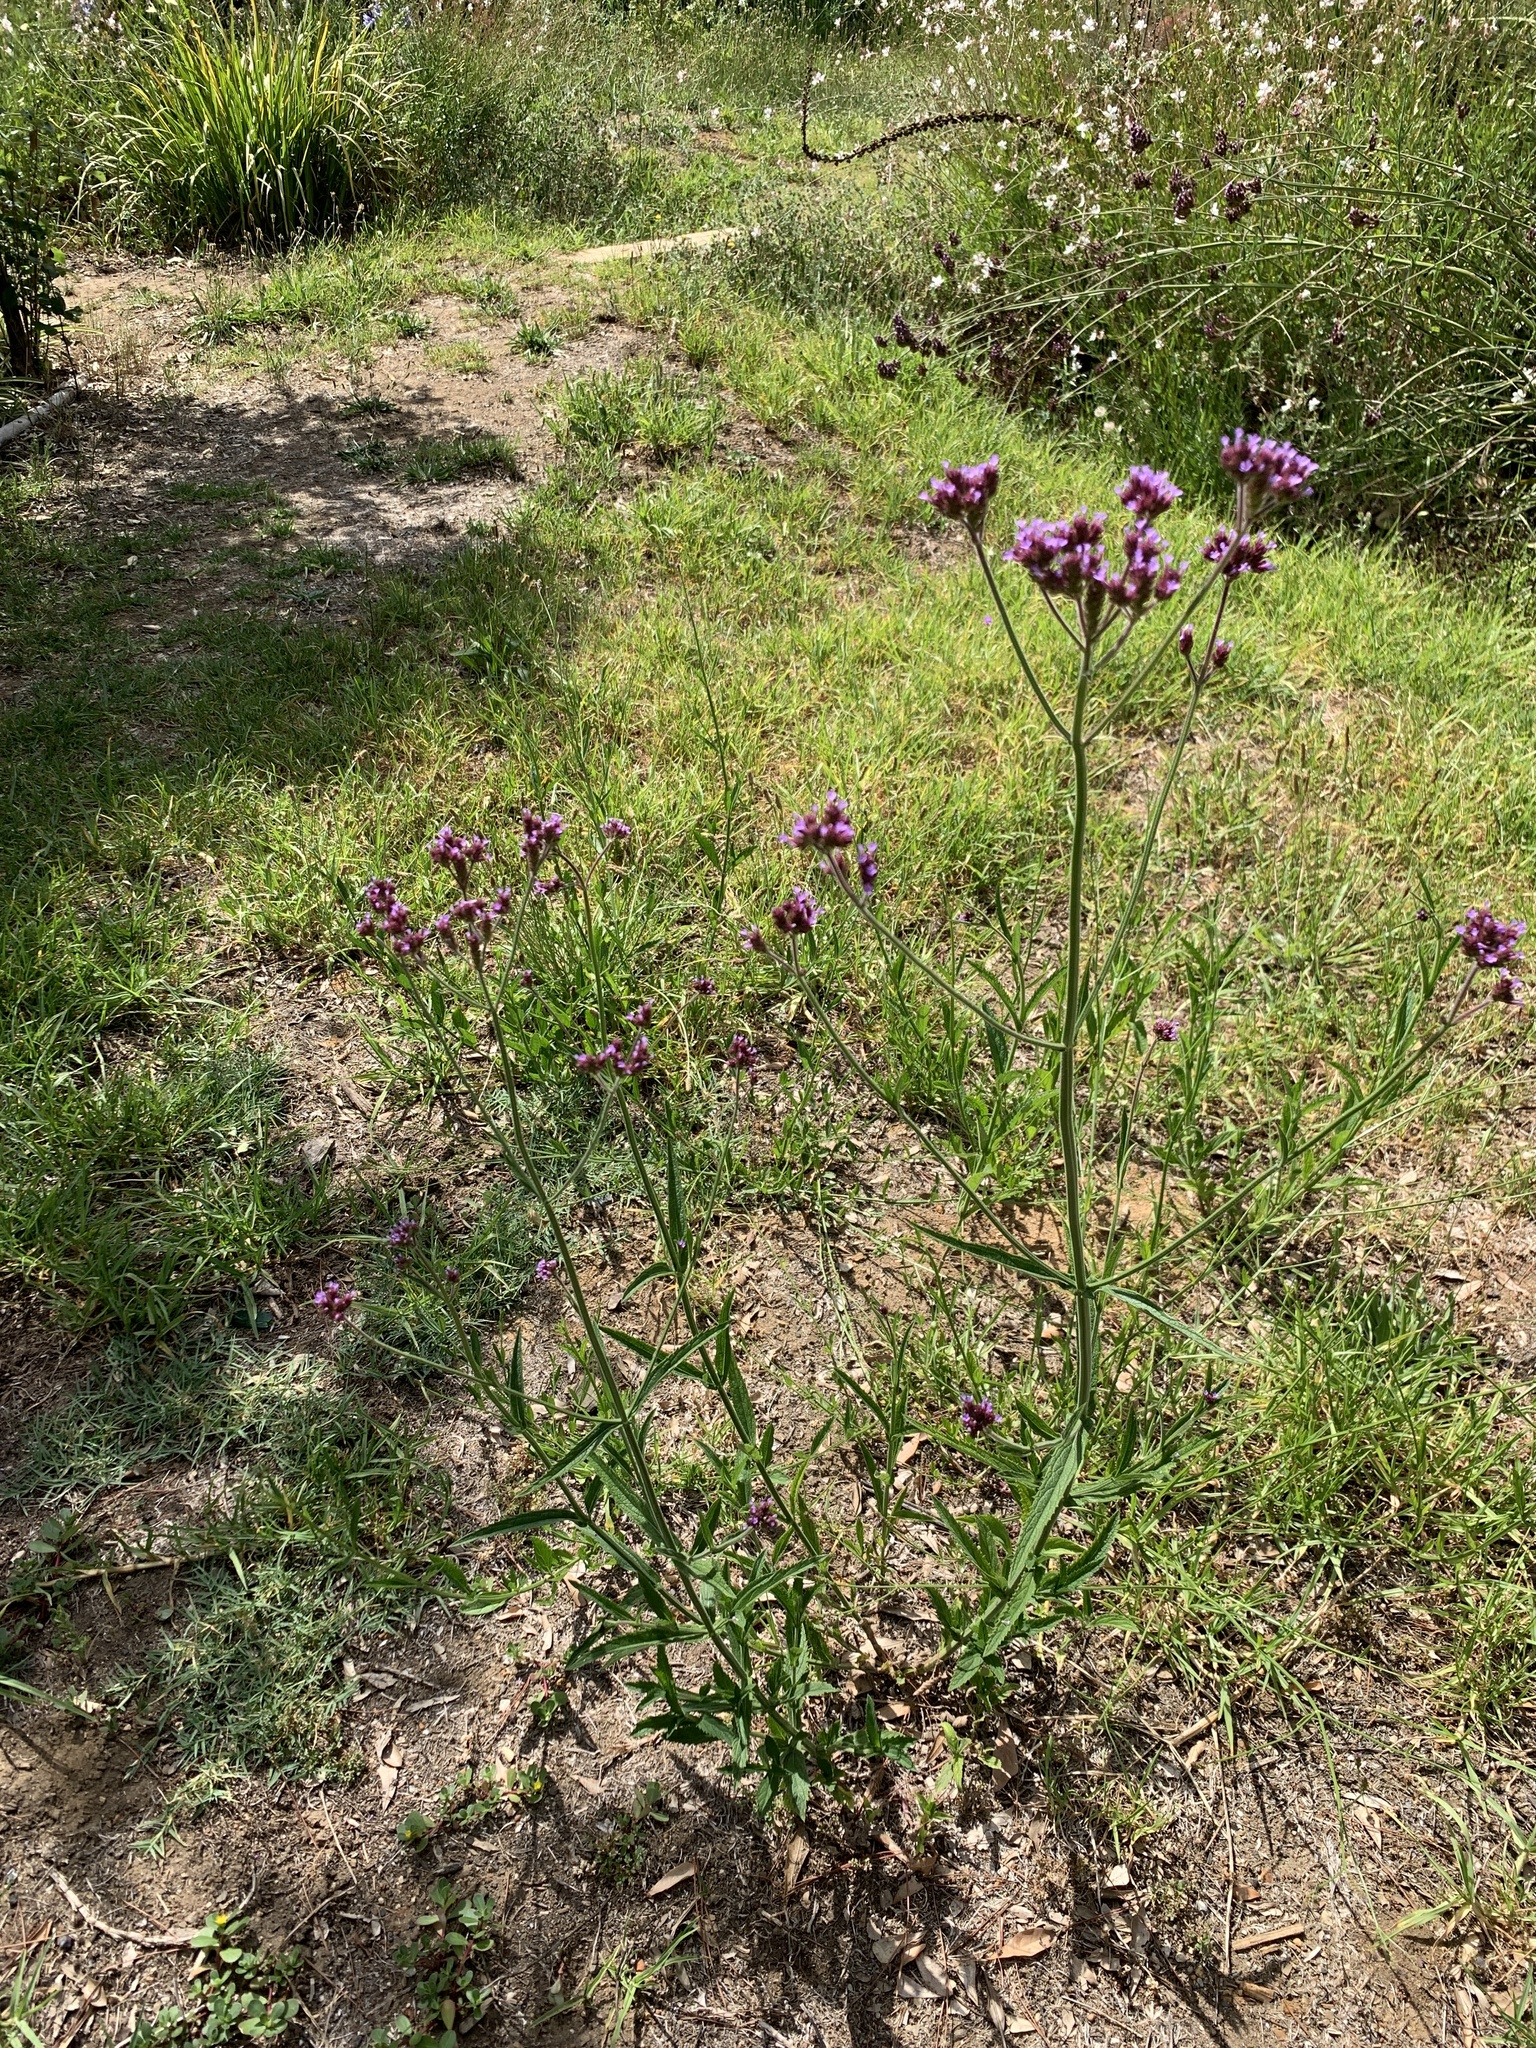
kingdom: Plantae
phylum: Tracheophyta
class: Magnoliopsida
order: Lamiales
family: Verbenaceae
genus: Verbena
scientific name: Verbena bonariensis
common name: Purpletop vervain
